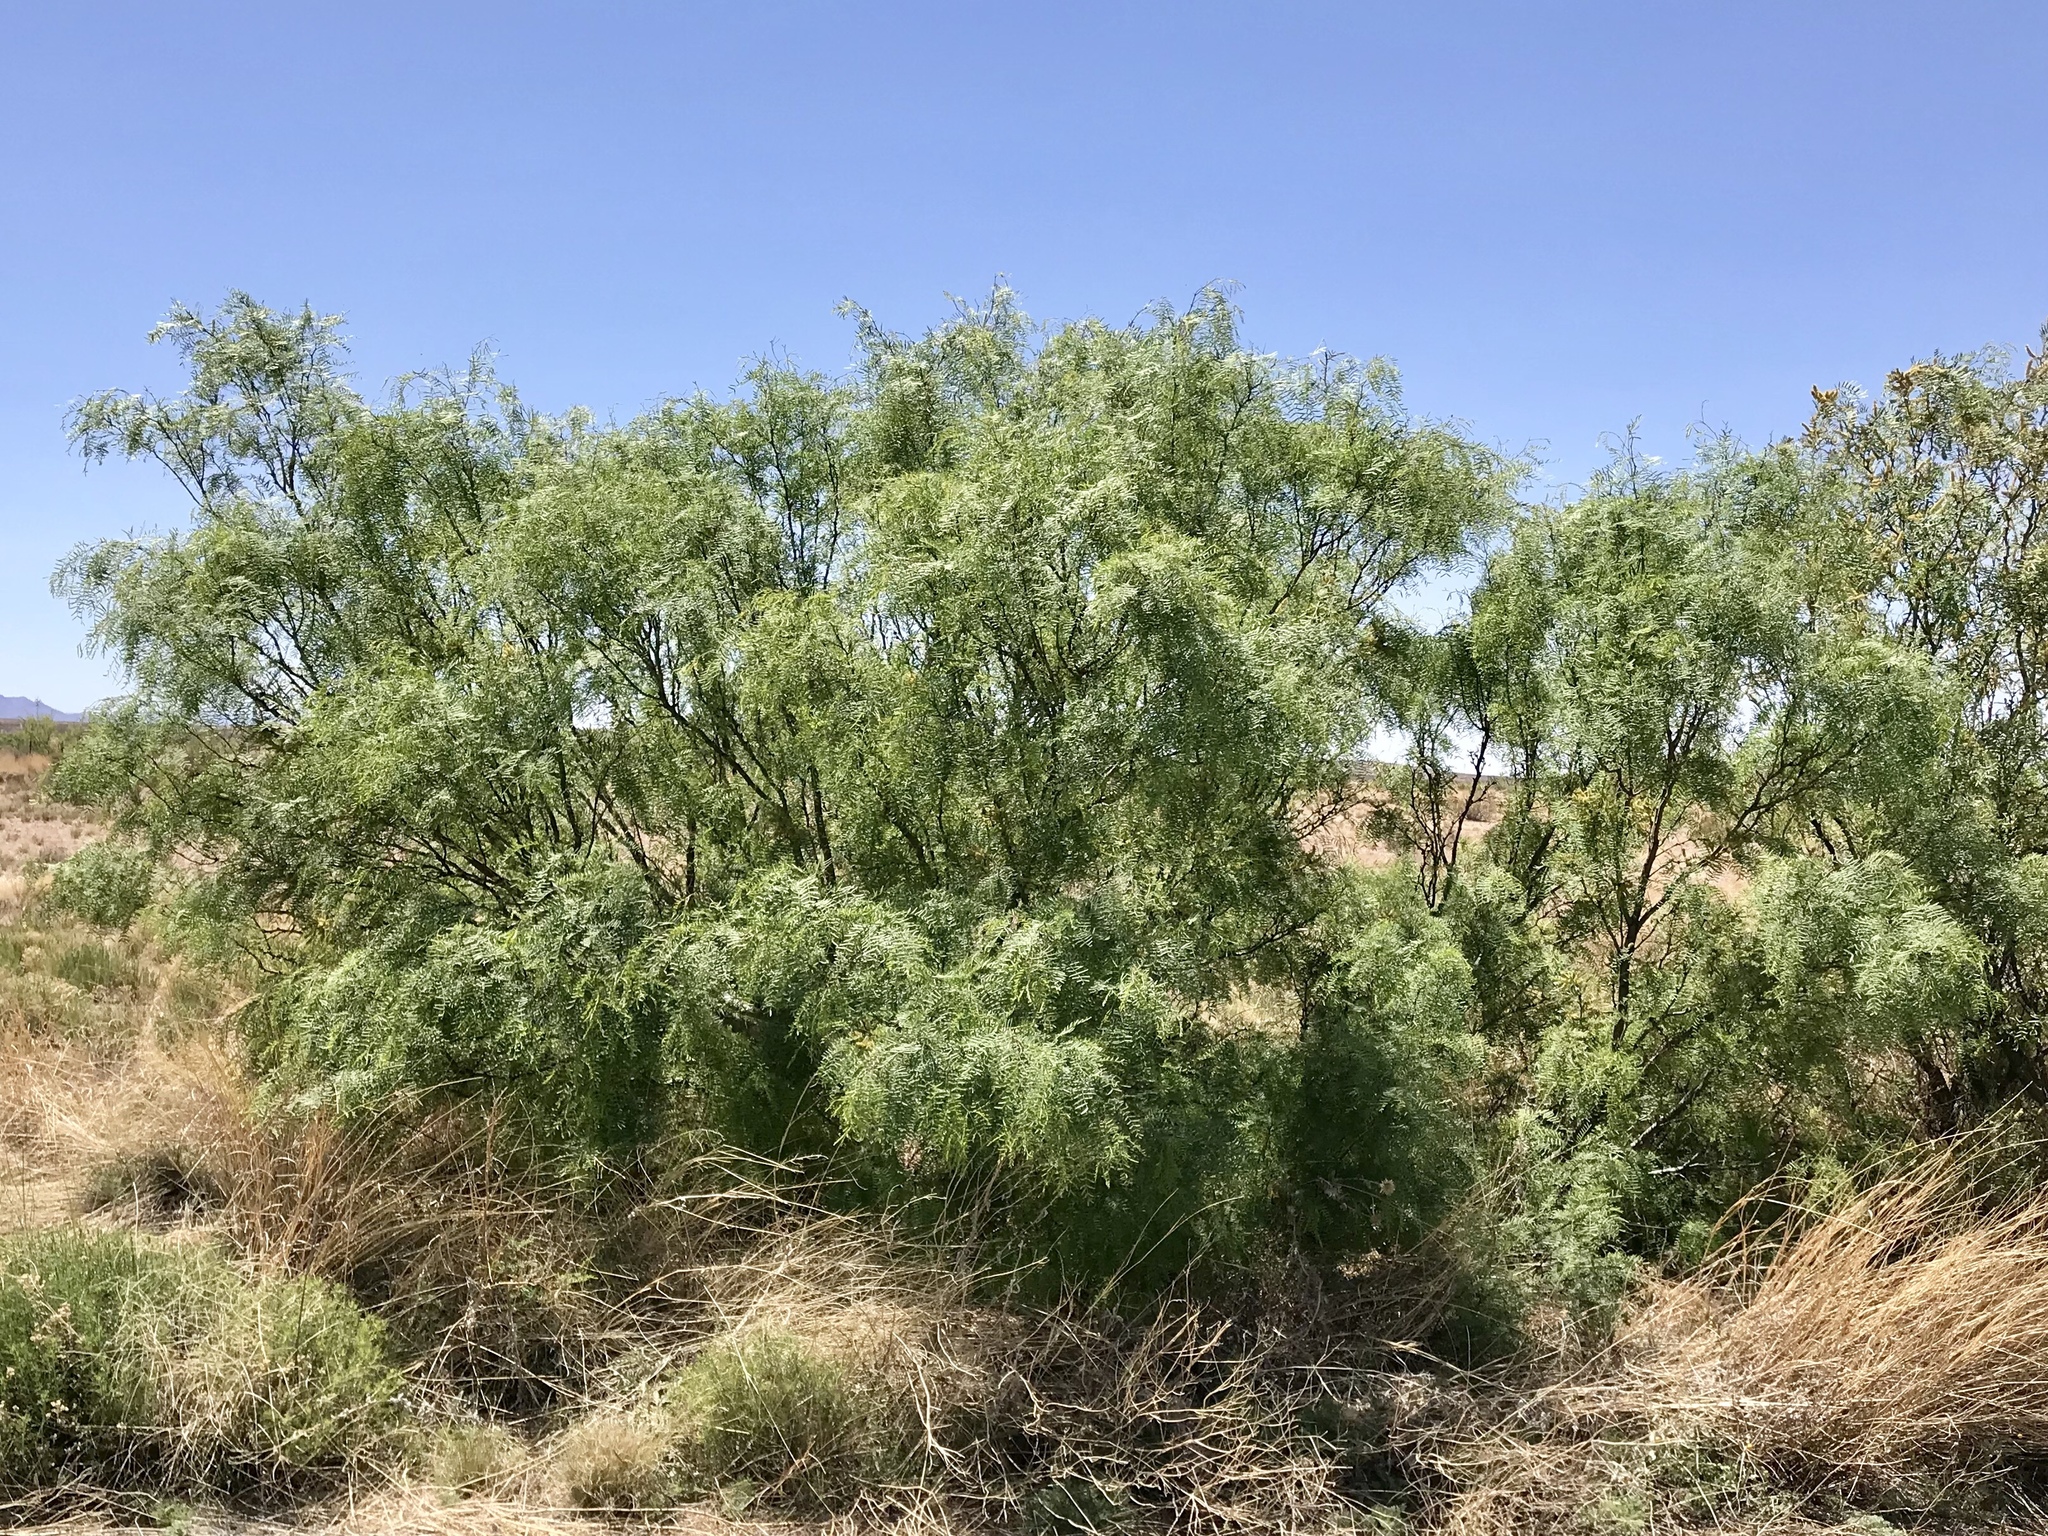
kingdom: Plantae
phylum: Tracheophyta
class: Magnoliopsida
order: Fabales
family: Fabaceae
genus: Prosopis
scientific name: Prosopis glandulosa
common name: Honey mesquite
